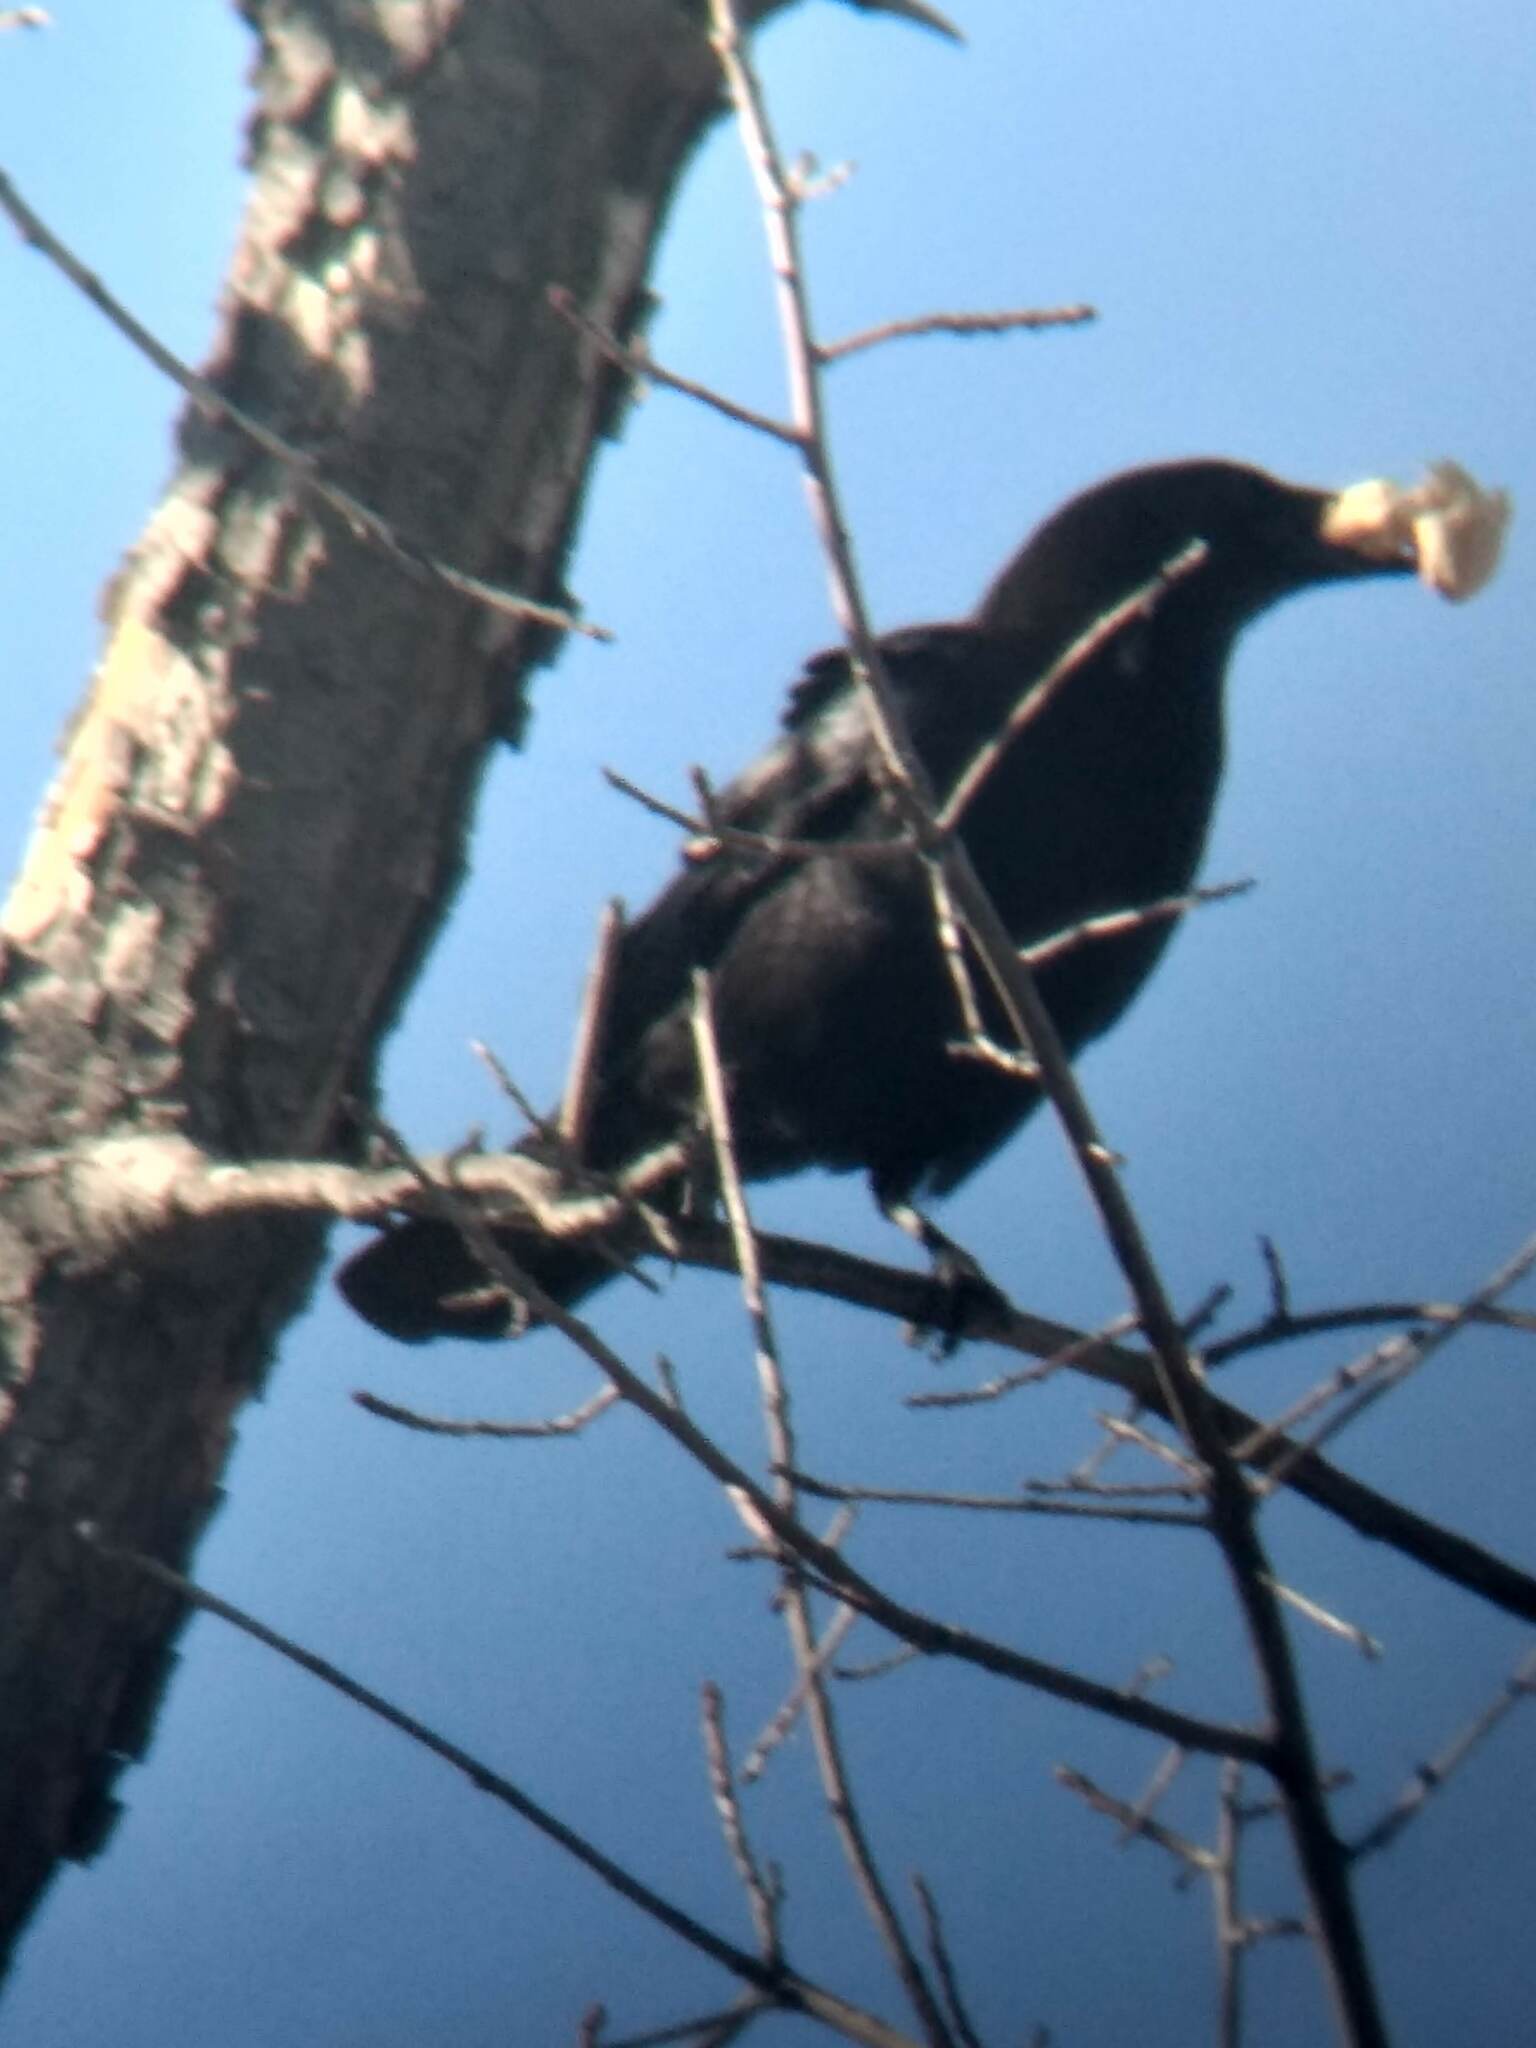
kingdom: Animalia
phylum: Chordata
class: Aves
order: Passeriformes
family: Corvidae
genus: Corvus
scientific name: Corvus brachyrhynchos
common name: American crow
